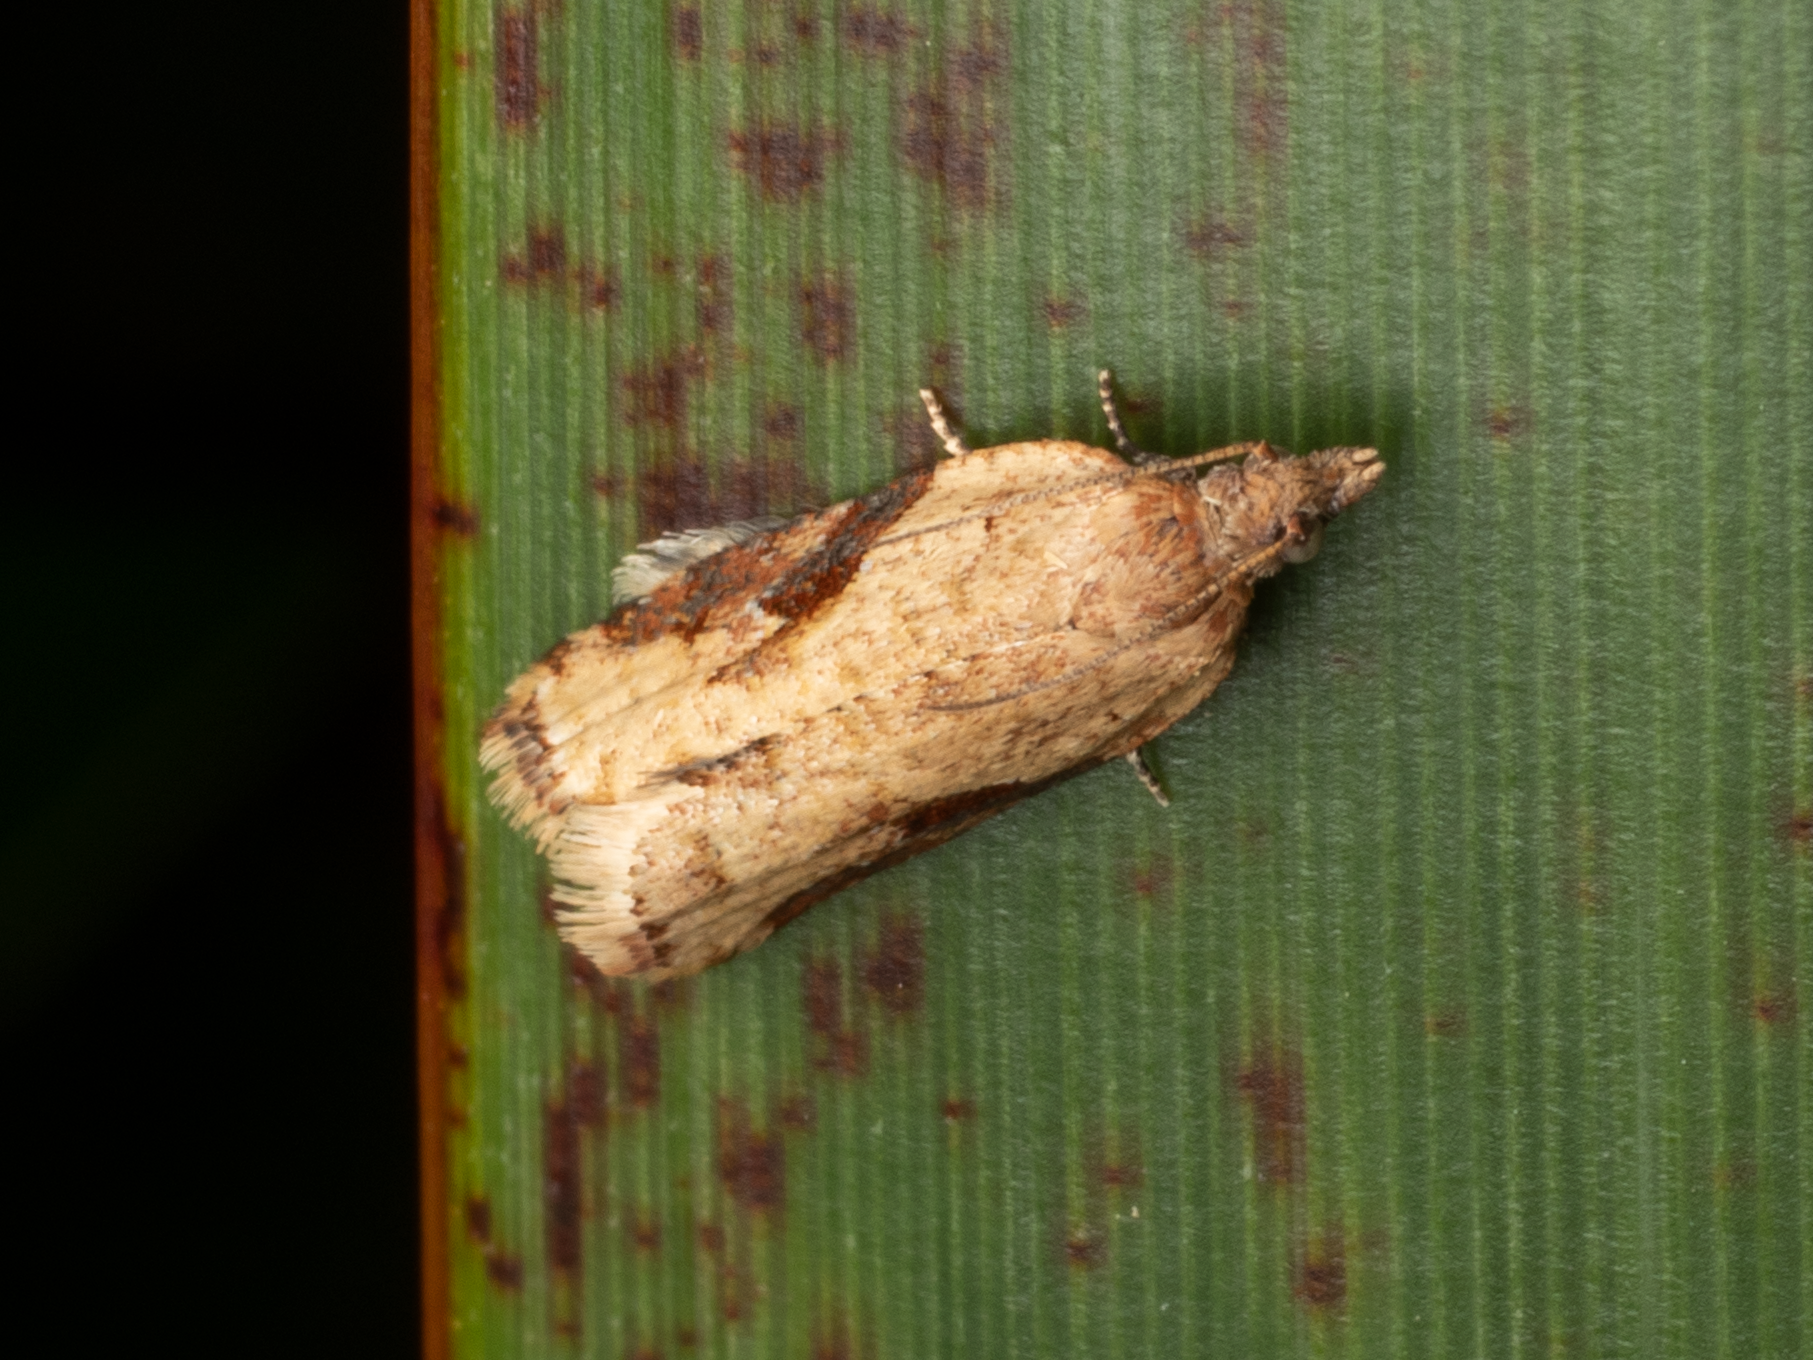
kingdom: Animalia
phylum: Arthropoda
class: Insecta
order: Lepidoptera
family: Tortricidae
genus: Capua
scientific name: Capua semiferana
